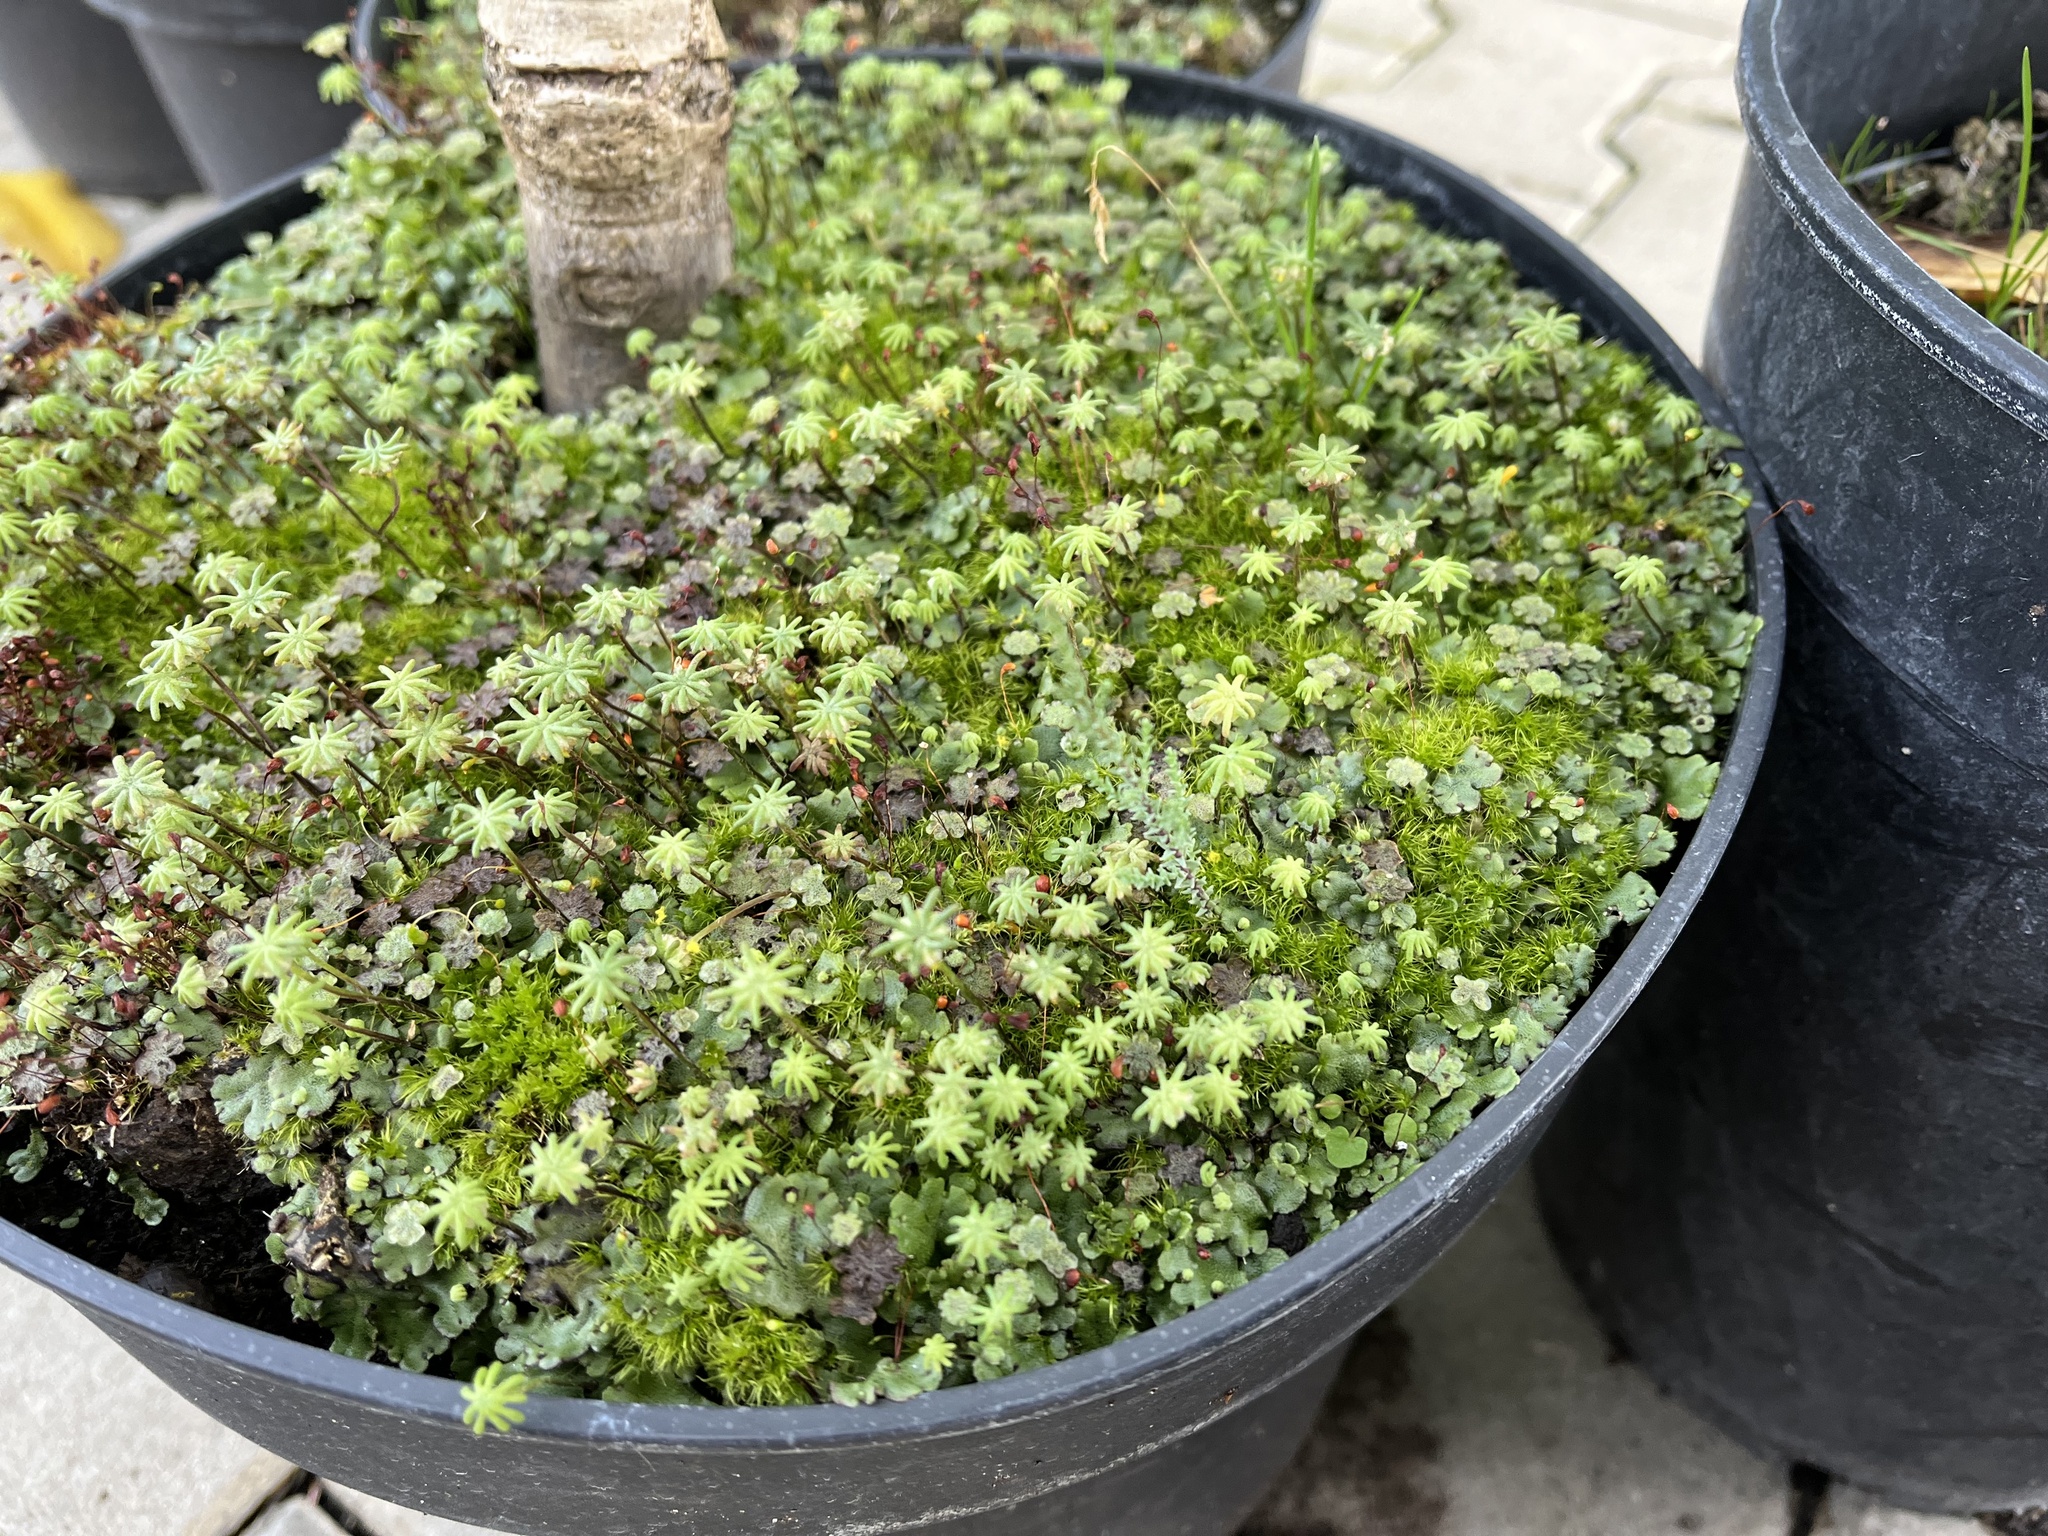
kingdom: Plantae
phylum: Marchantiophyta
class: Marchantiopsida
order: Marchantiales
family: Marchantiaceae
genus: Marchantia
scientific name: Marchantia polymorpha
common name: Common liverwort
